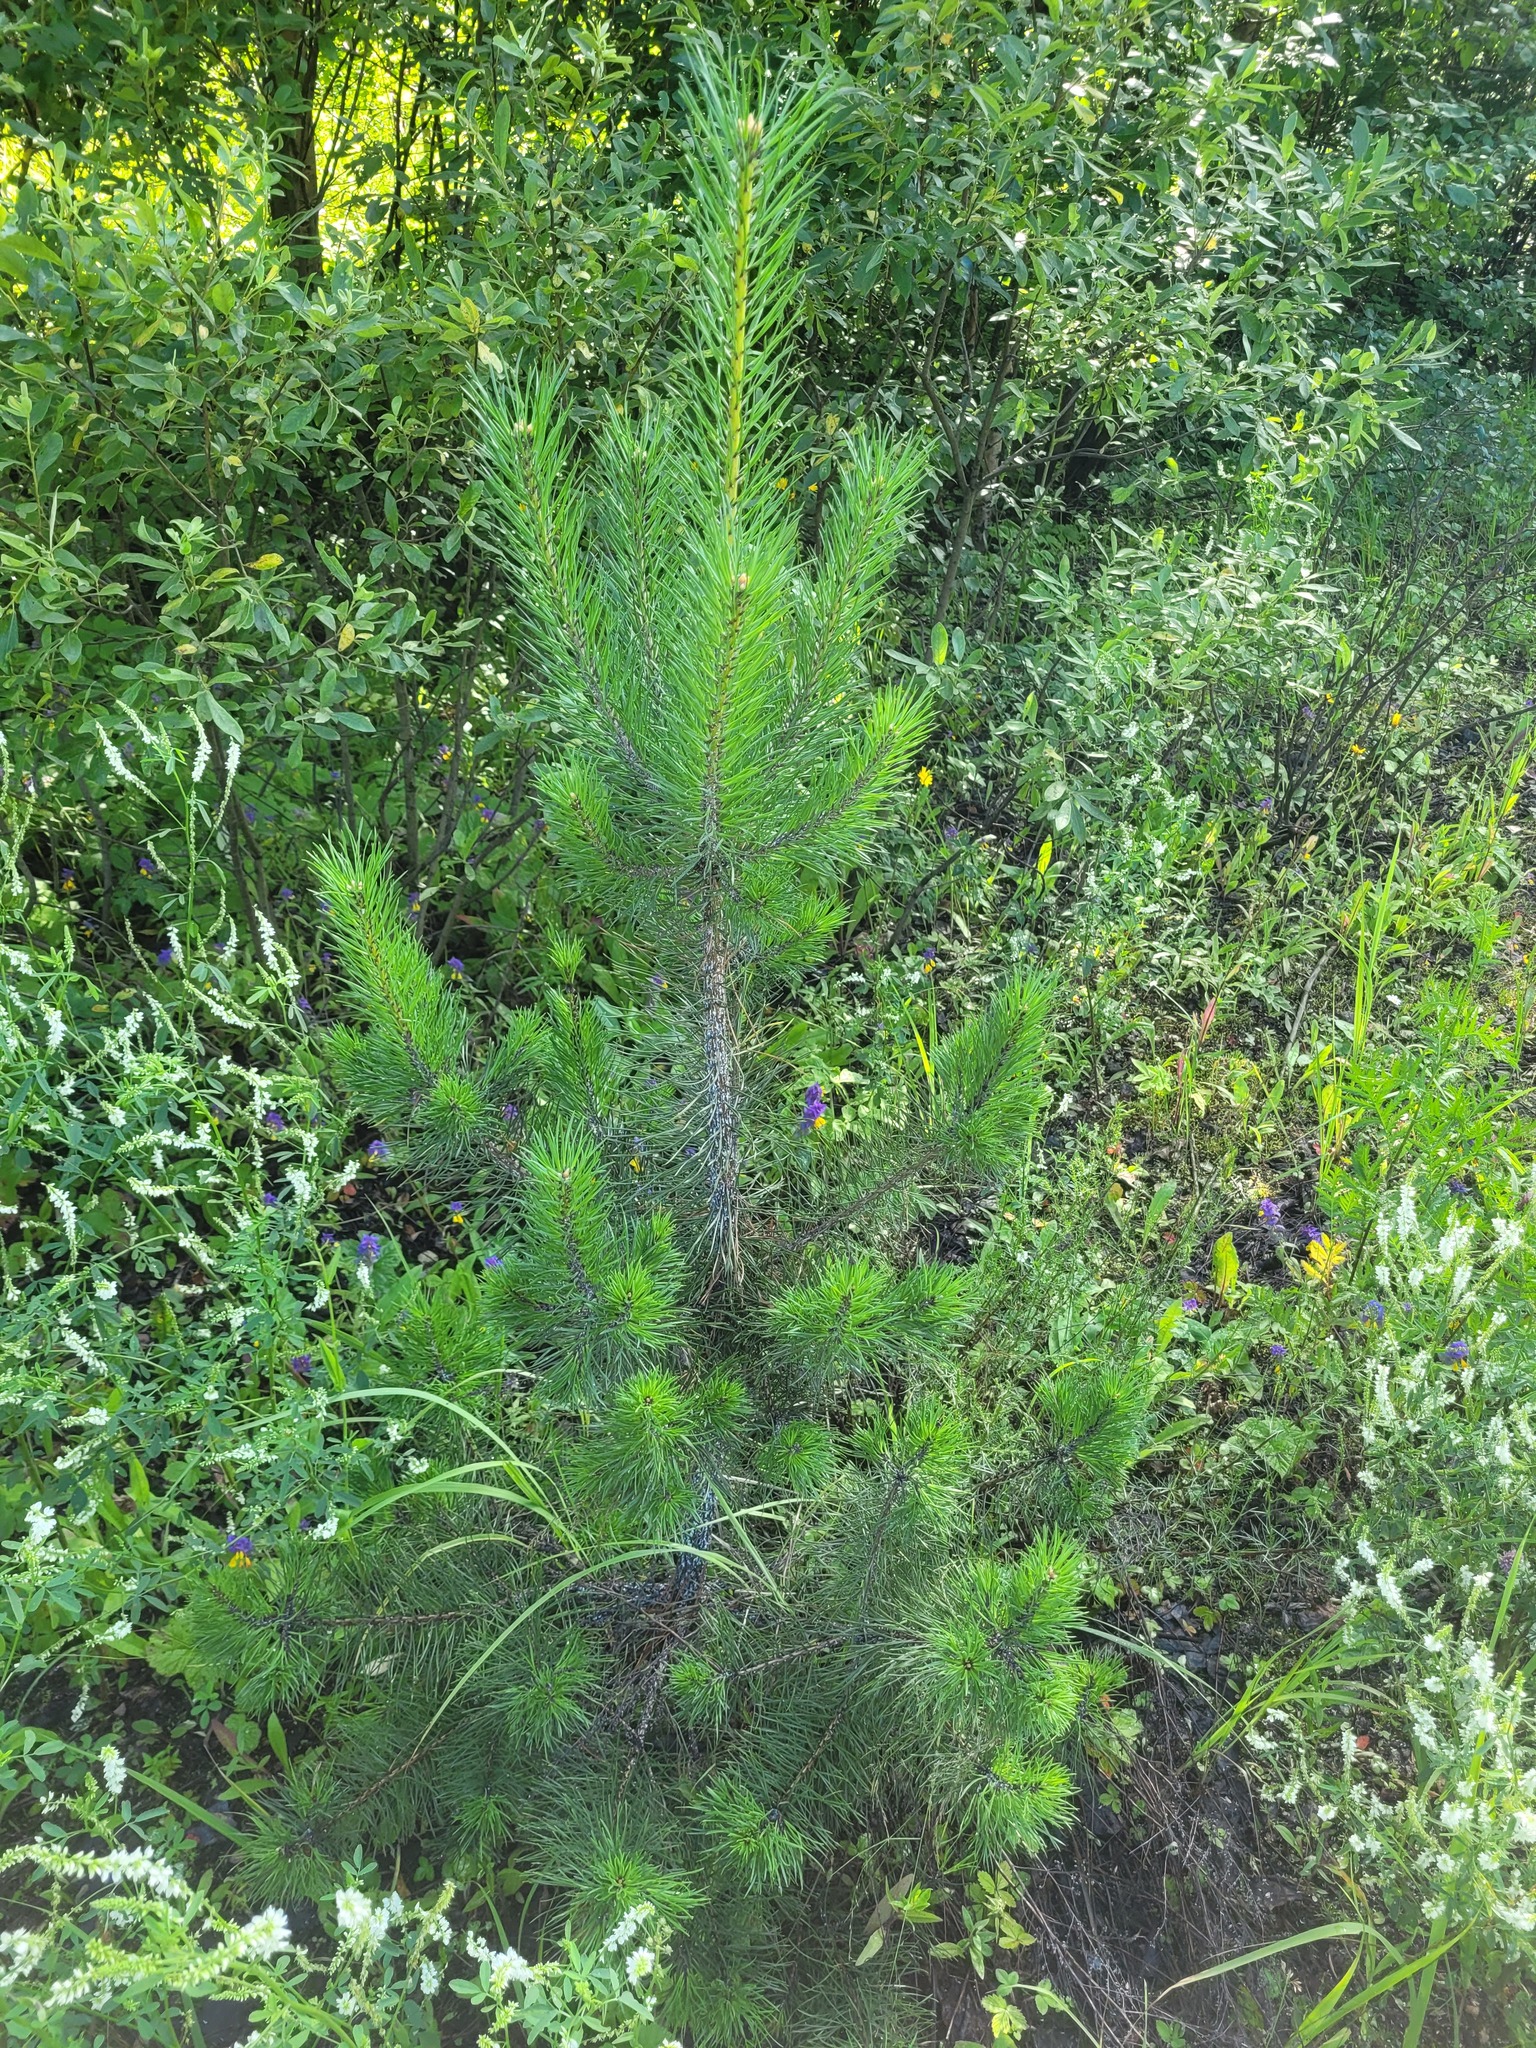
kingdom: Plantae
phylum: Tracheophyta
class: Pinopsida
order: Pinales
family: Pinaceae
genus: Pinus
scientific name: Pinus sylvestris
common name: Scots pine
